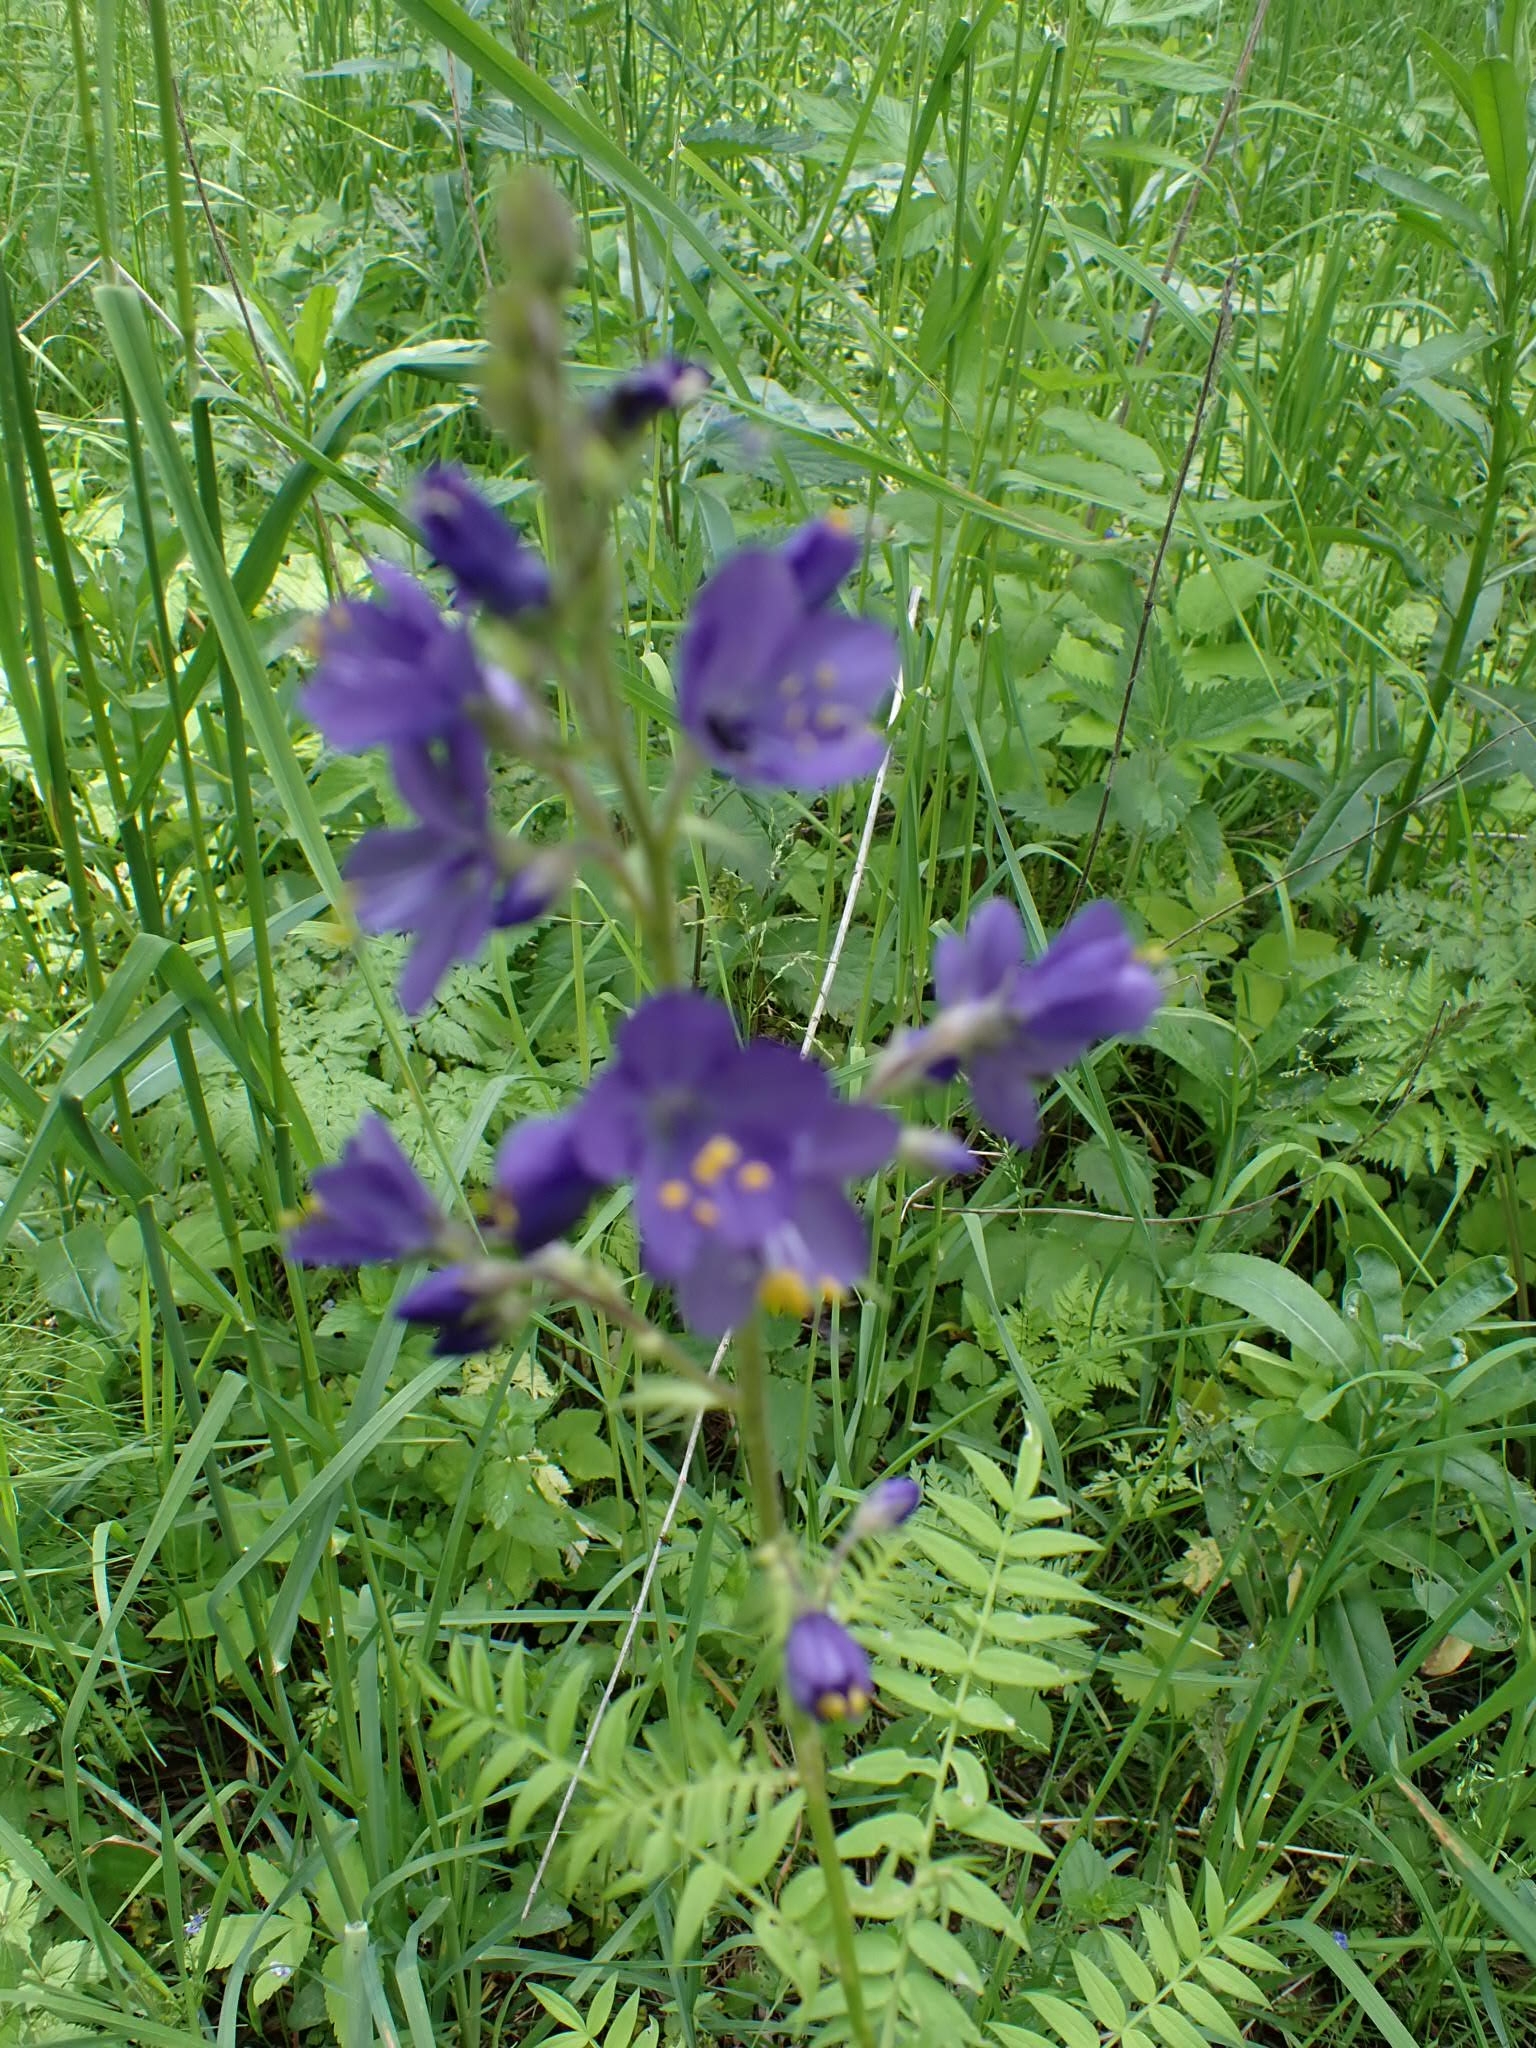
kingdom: Plantae
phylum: Tracheophyta
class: Magnoliopsida
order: Ericales
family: Polemoniaceae
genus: Polemonium
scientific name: Polemonium caeruleum
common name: Jacob's-ladder
